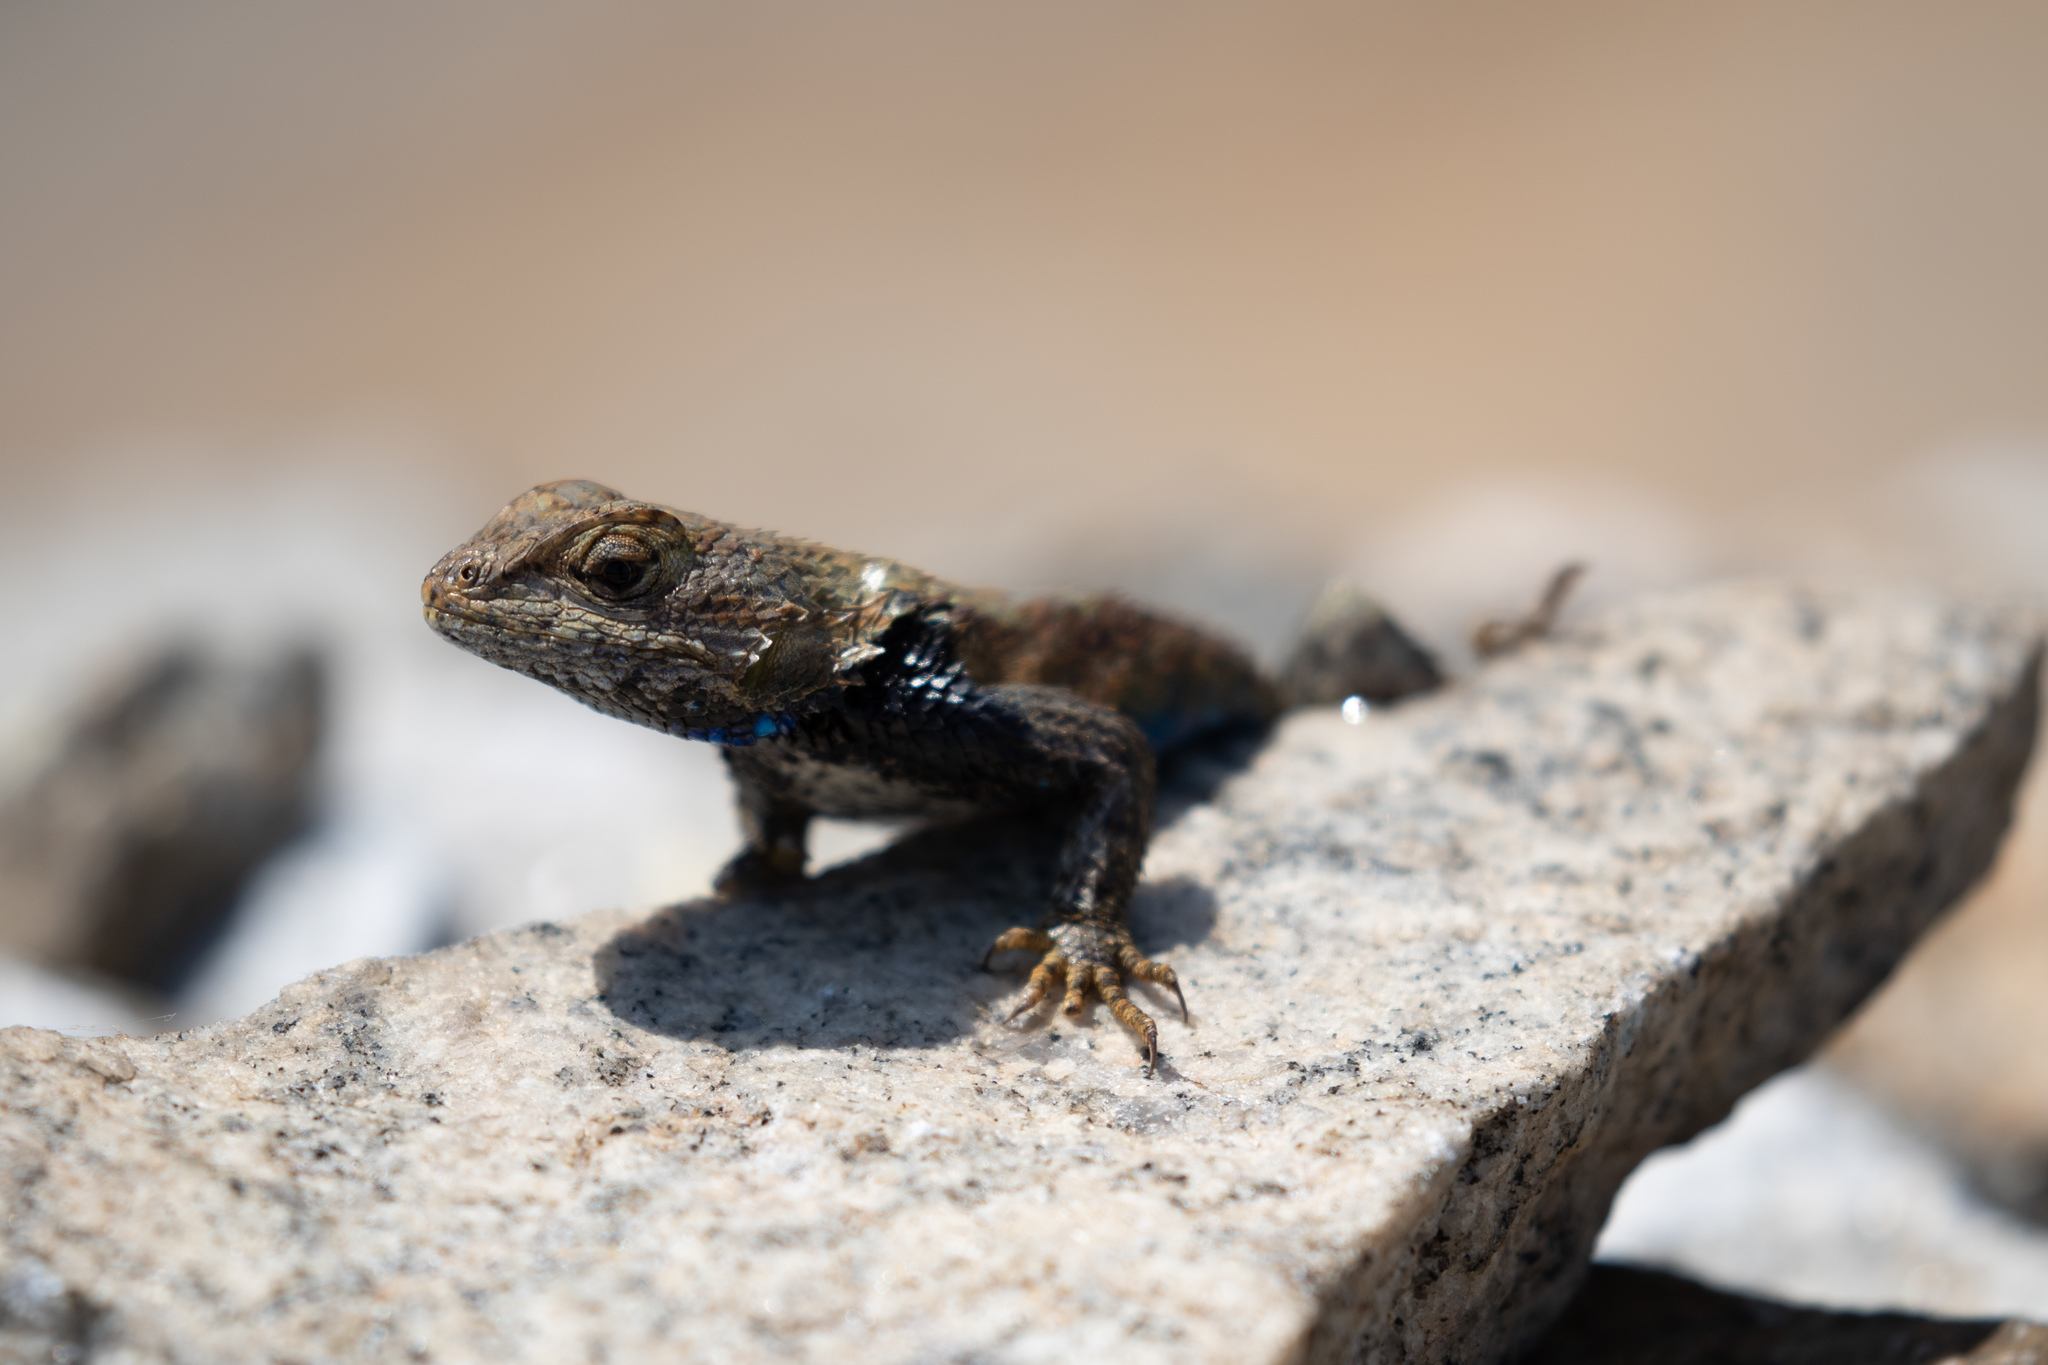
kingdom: Animalia
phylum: Chordata
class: Squamata
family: Phrynosomatidae
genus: Sceloporus
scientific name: Sceloporus undulatus
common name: Eastern fence lizard
